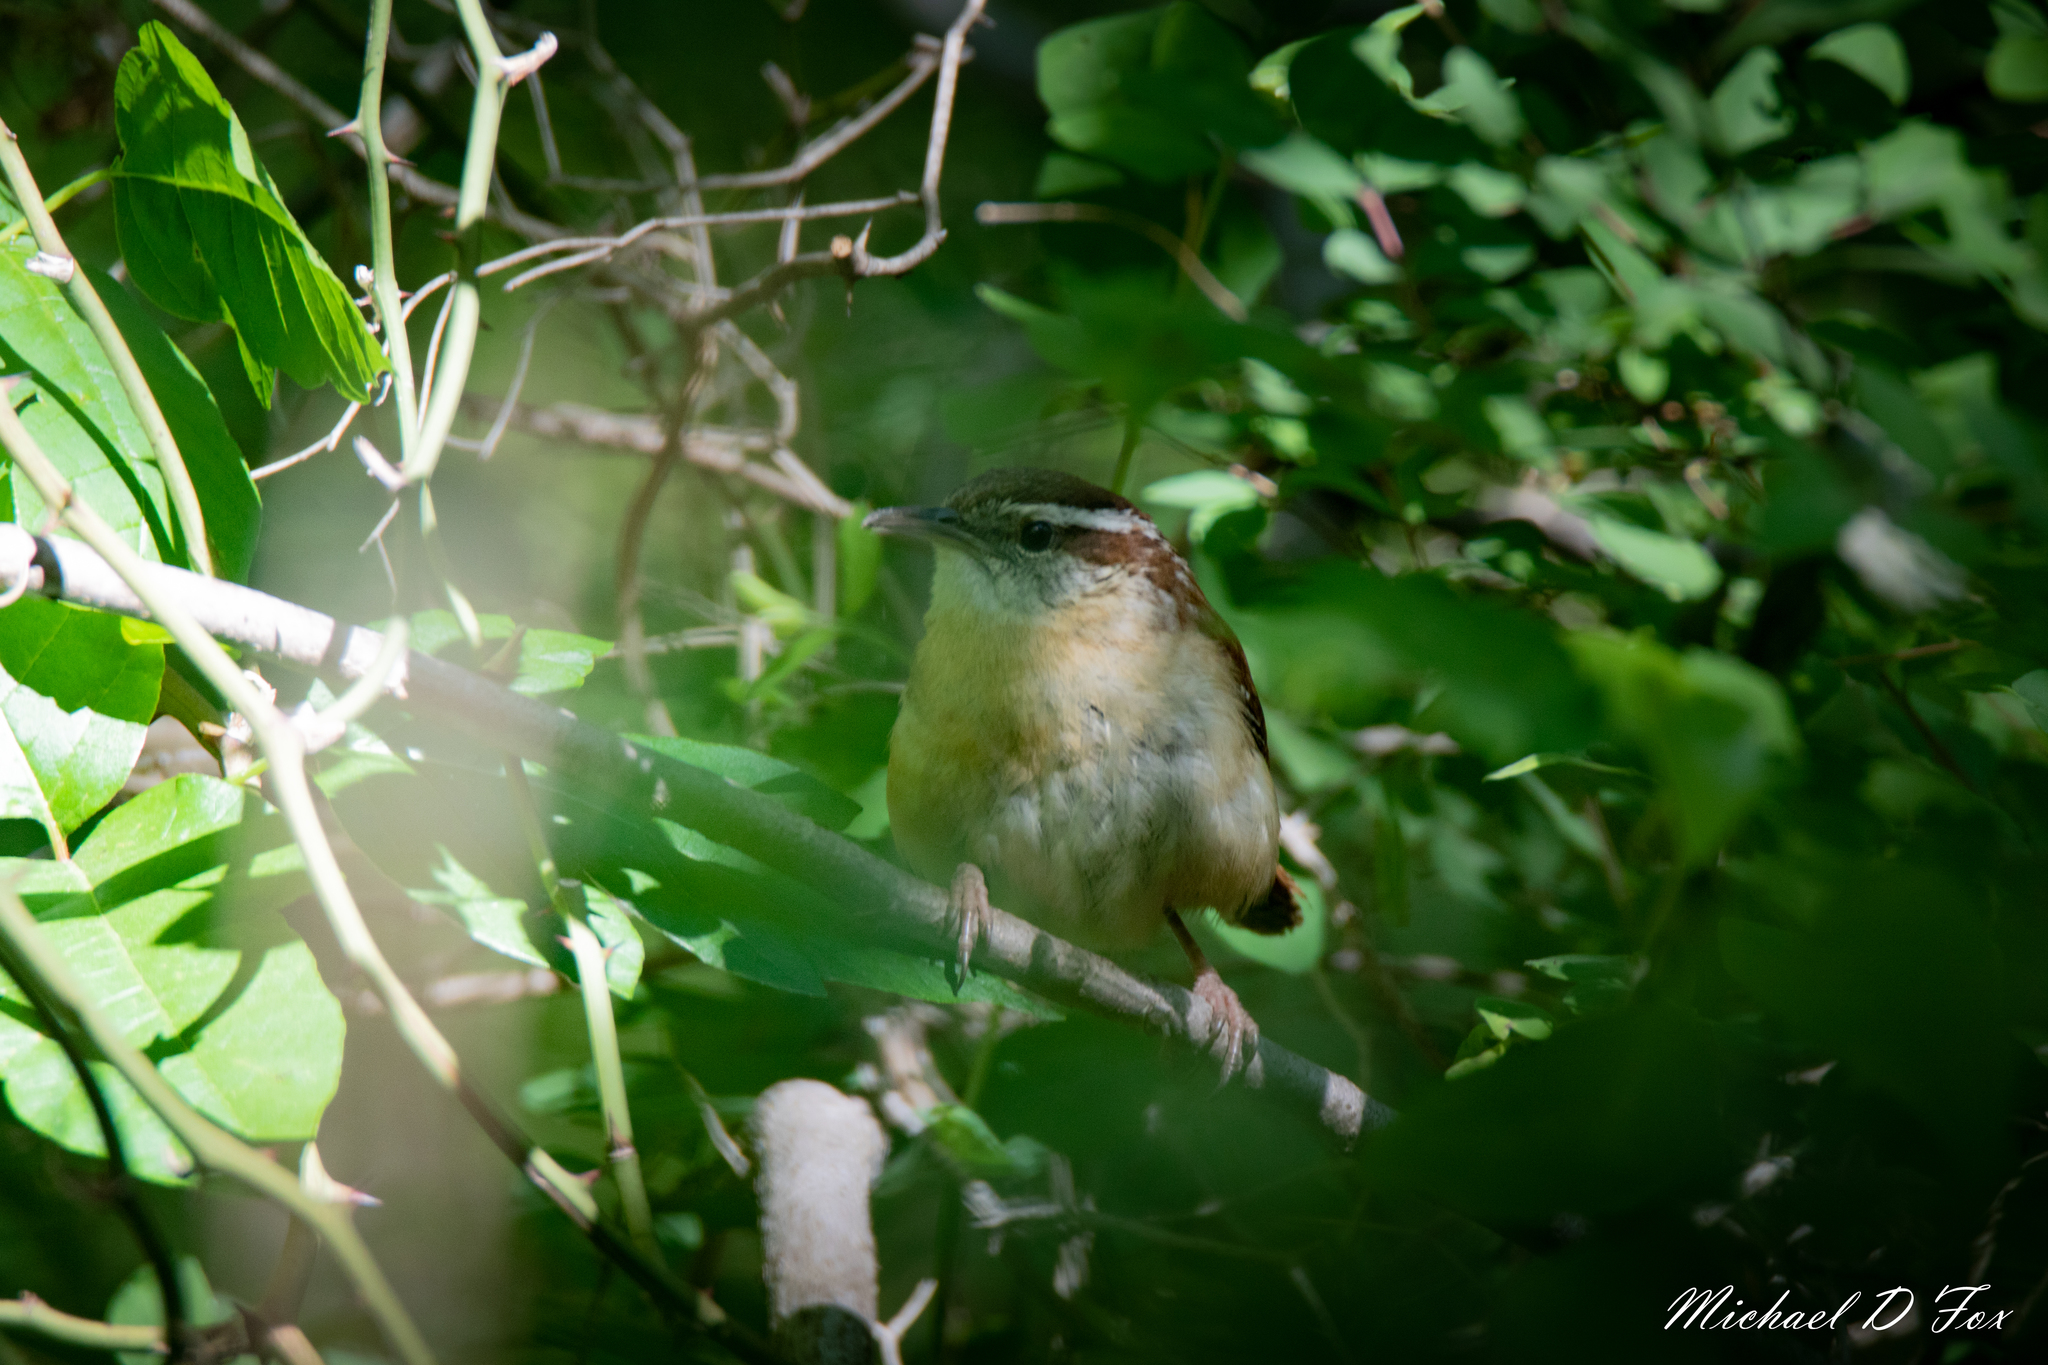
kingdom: Animalia
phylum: Chordata
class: Aves
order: Passeriformes
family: Troglodytidae
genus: Thryothorus
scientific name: Thryothorus ludovicianus
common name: Carolina wren
